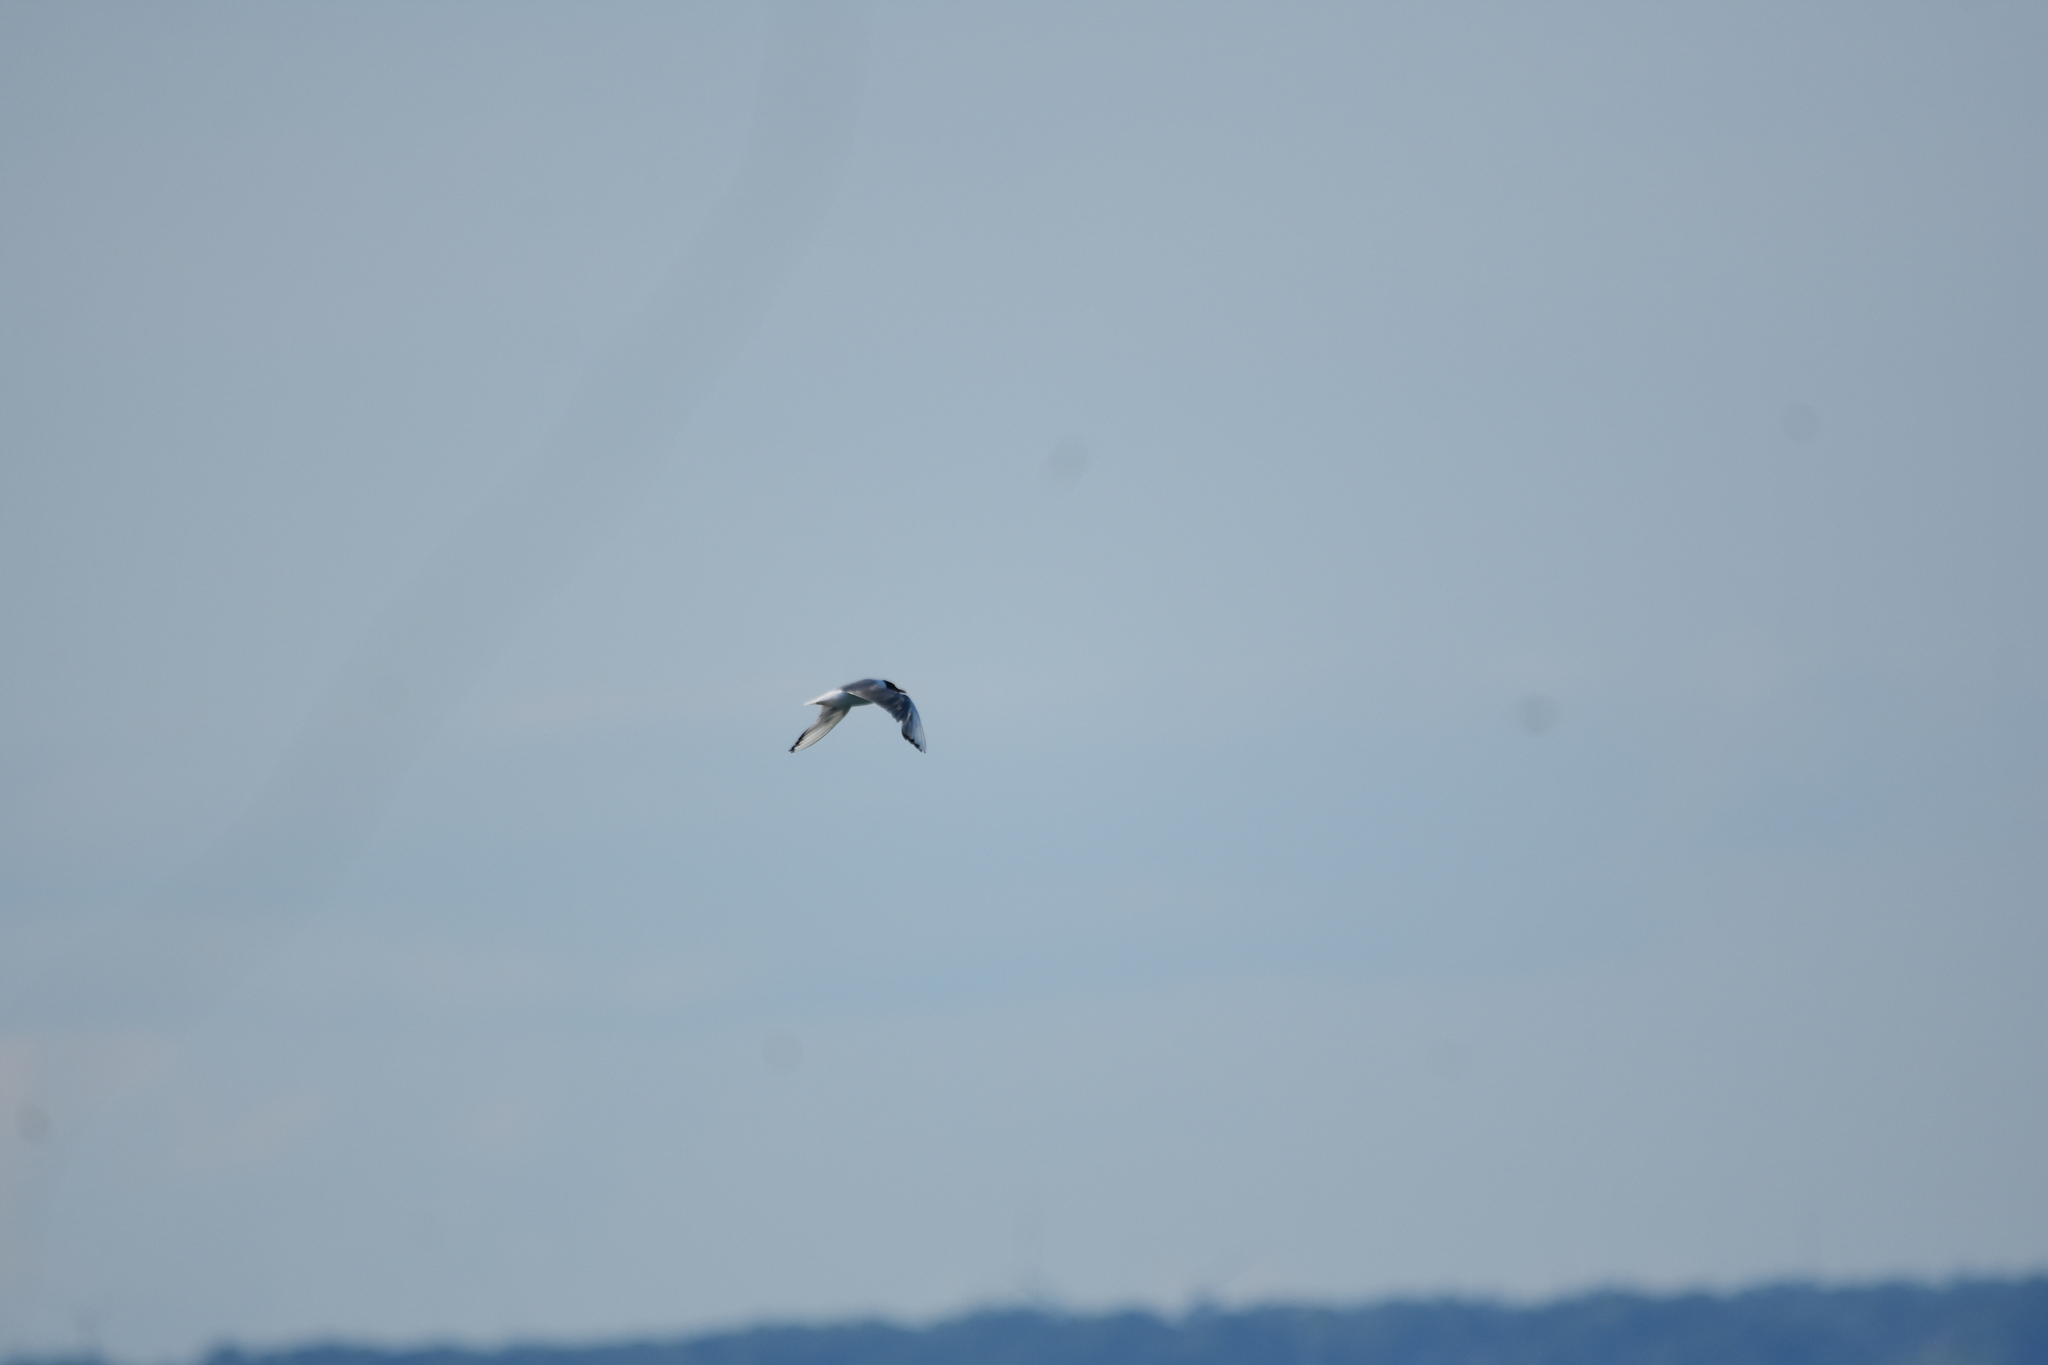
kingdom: Animalia
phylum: Chordata
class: Aves
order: Charadriiformes
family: Laridae
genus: Chroicocephalus
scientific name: Chroicocephalus philadelphia
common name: Bonaparte's gull
